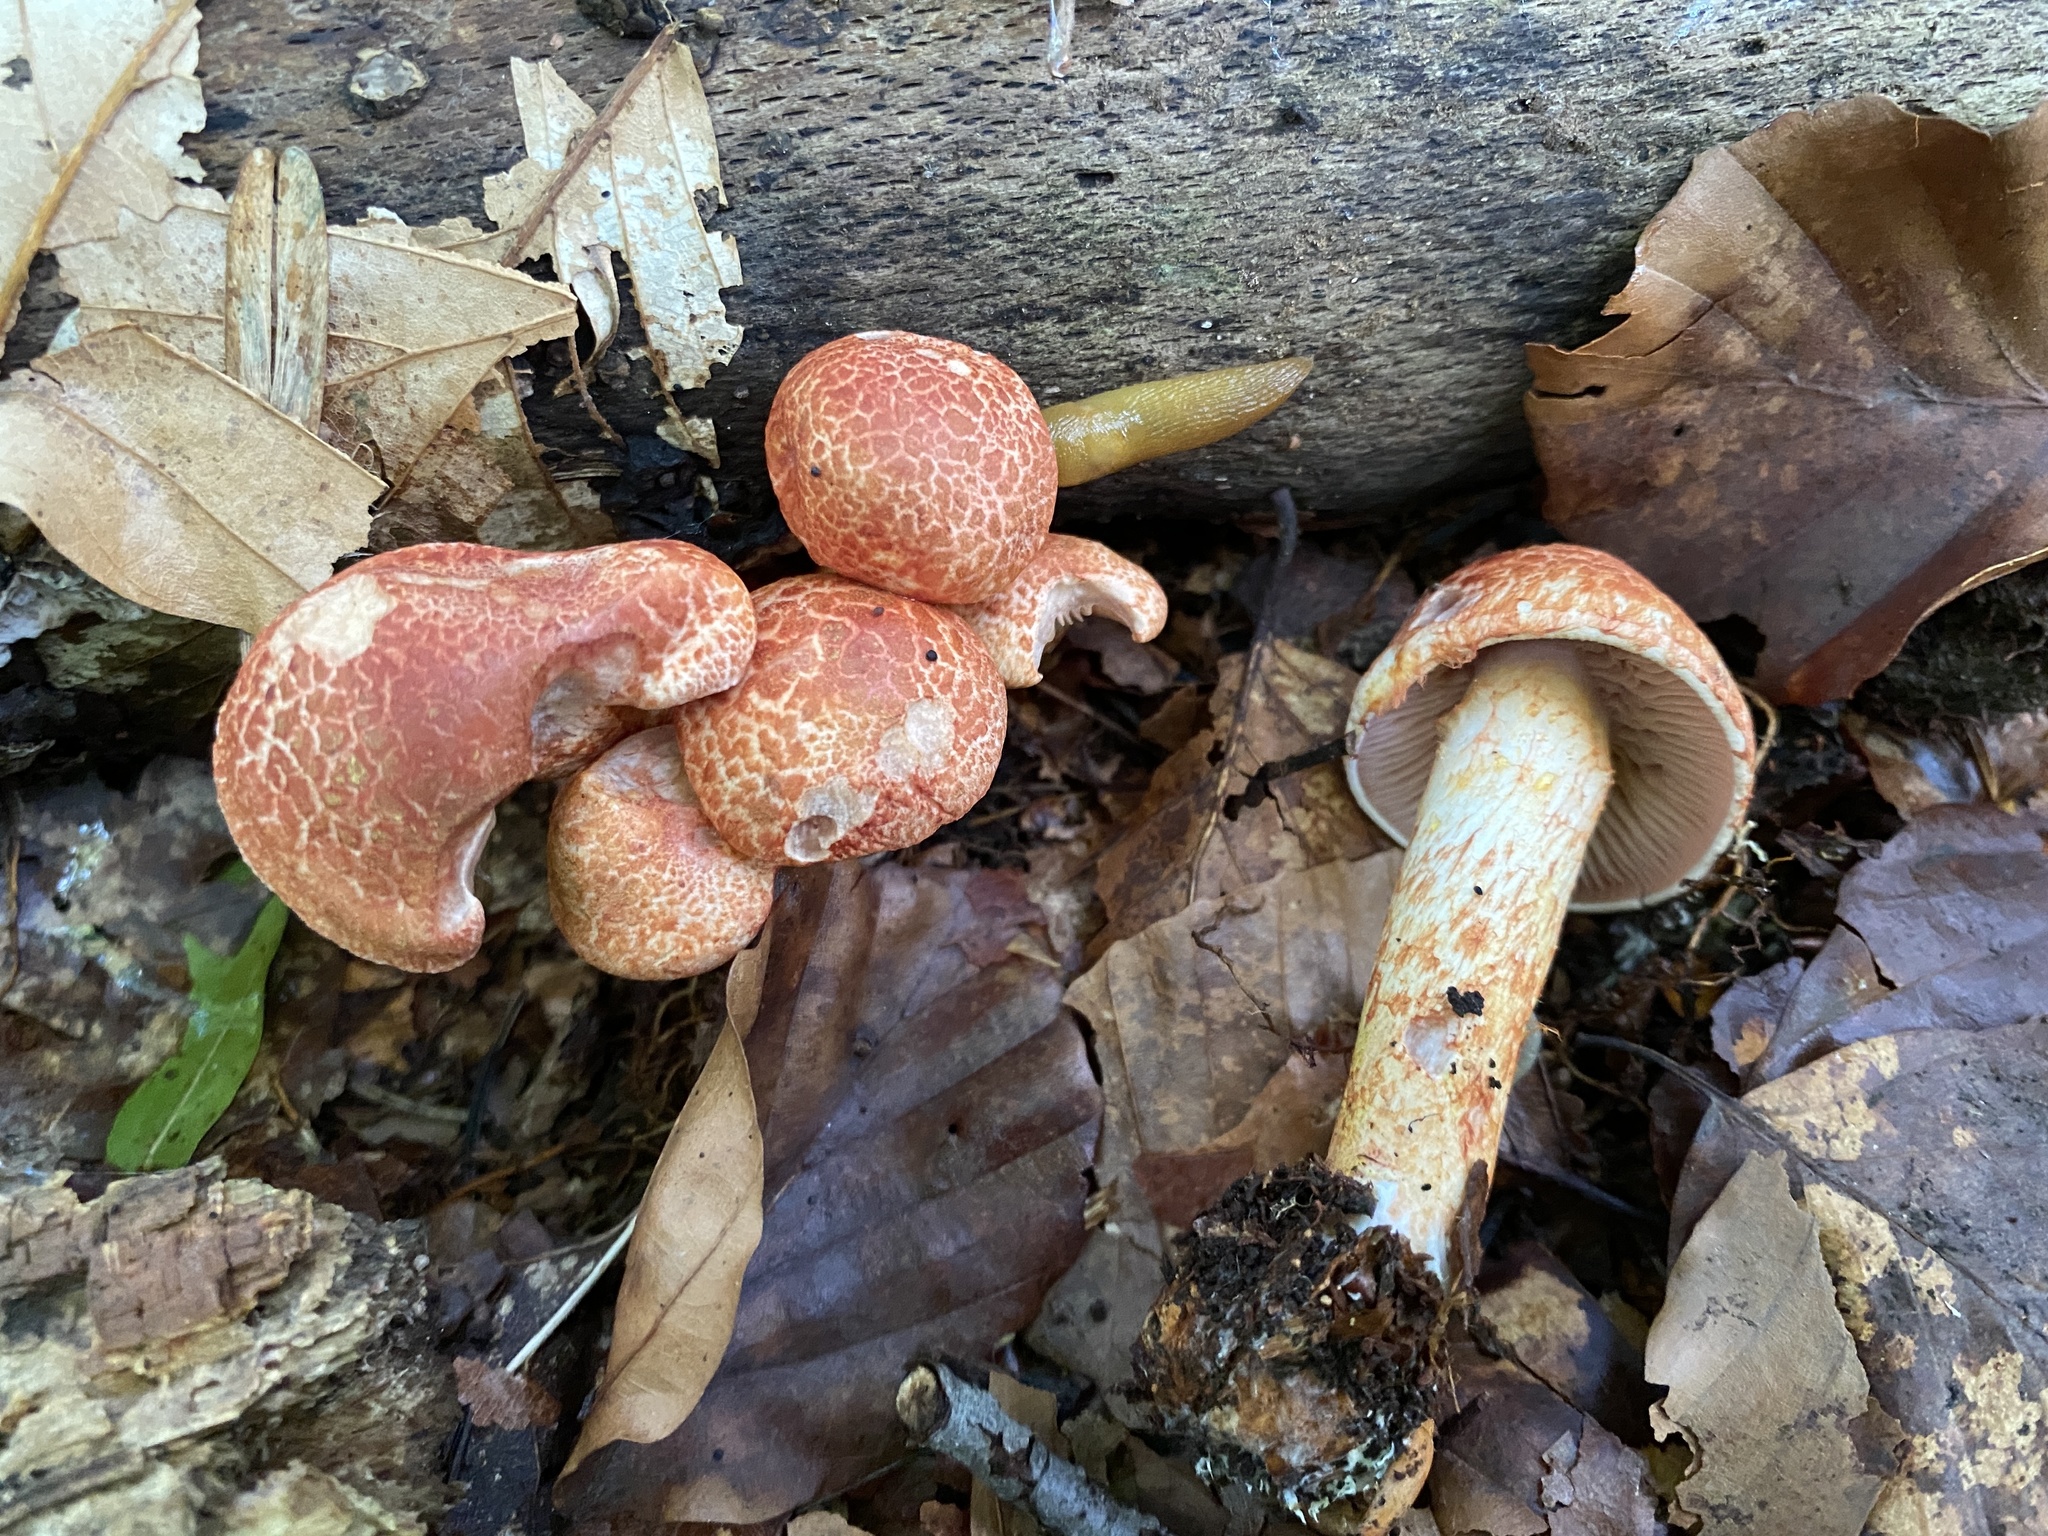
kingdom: Fungi
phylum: Basidiomycota
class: Agaricomycetes
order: Agaricales
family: Cortinariaceae
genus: Cortinarius
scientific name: Cortinarius bolaris
